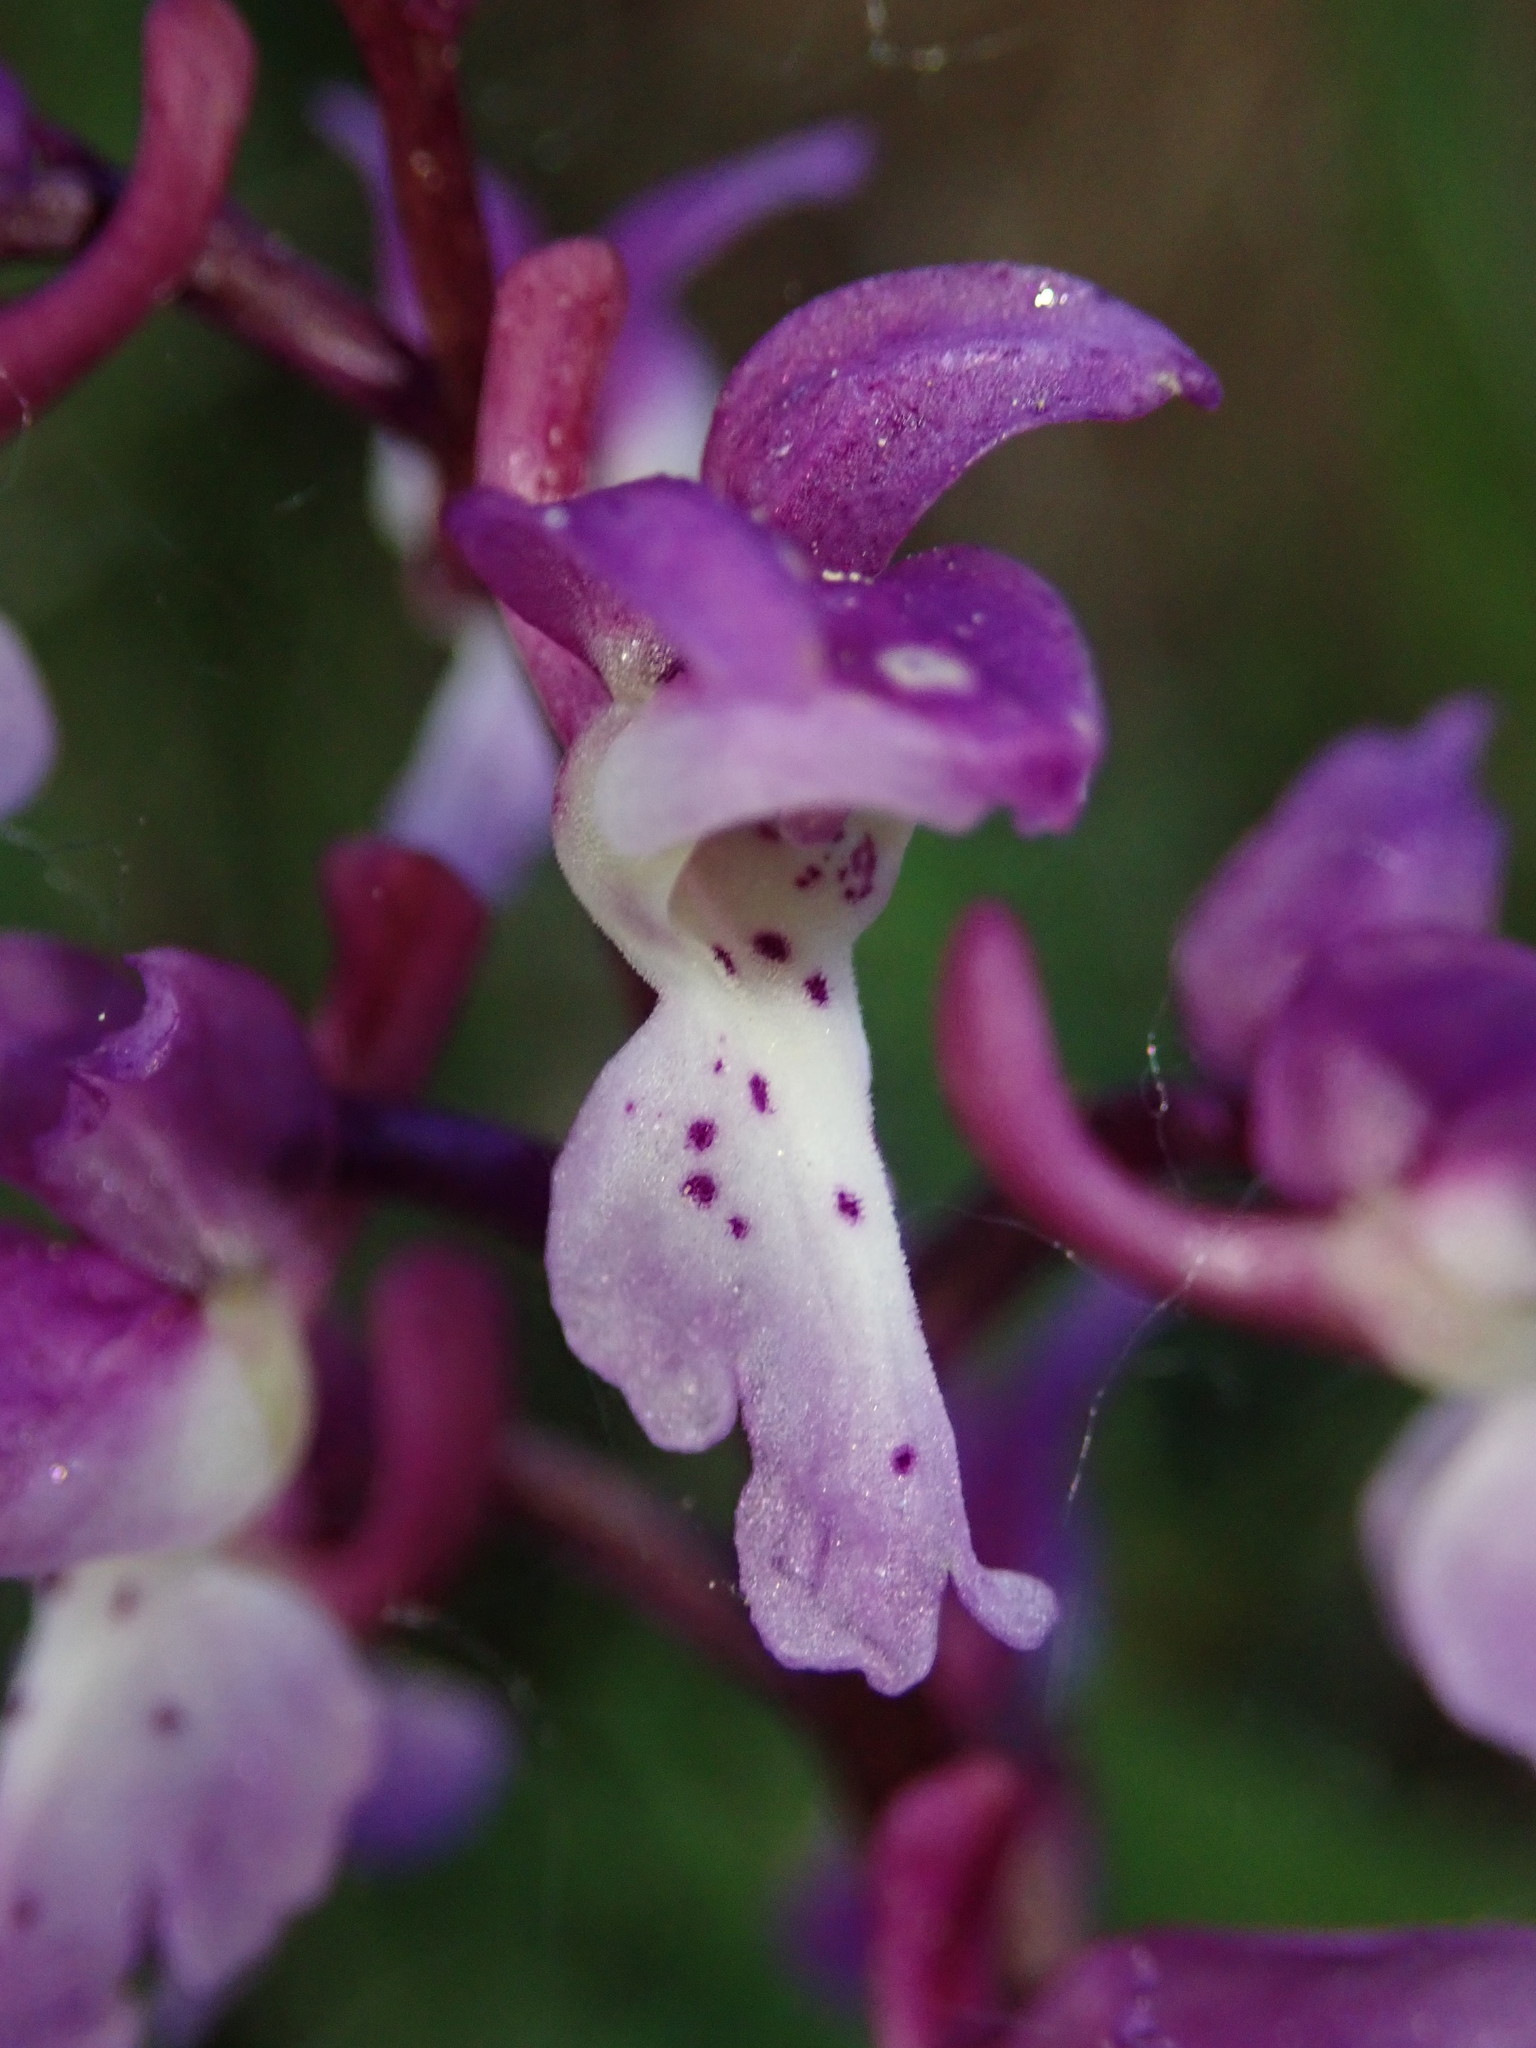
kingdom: Plantae
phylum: Tracheophyta
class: Liliopsida
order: Asparagales
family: Orchidaceae
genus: Orchis
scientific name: Orchis mascula
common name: Early-purple orchid
